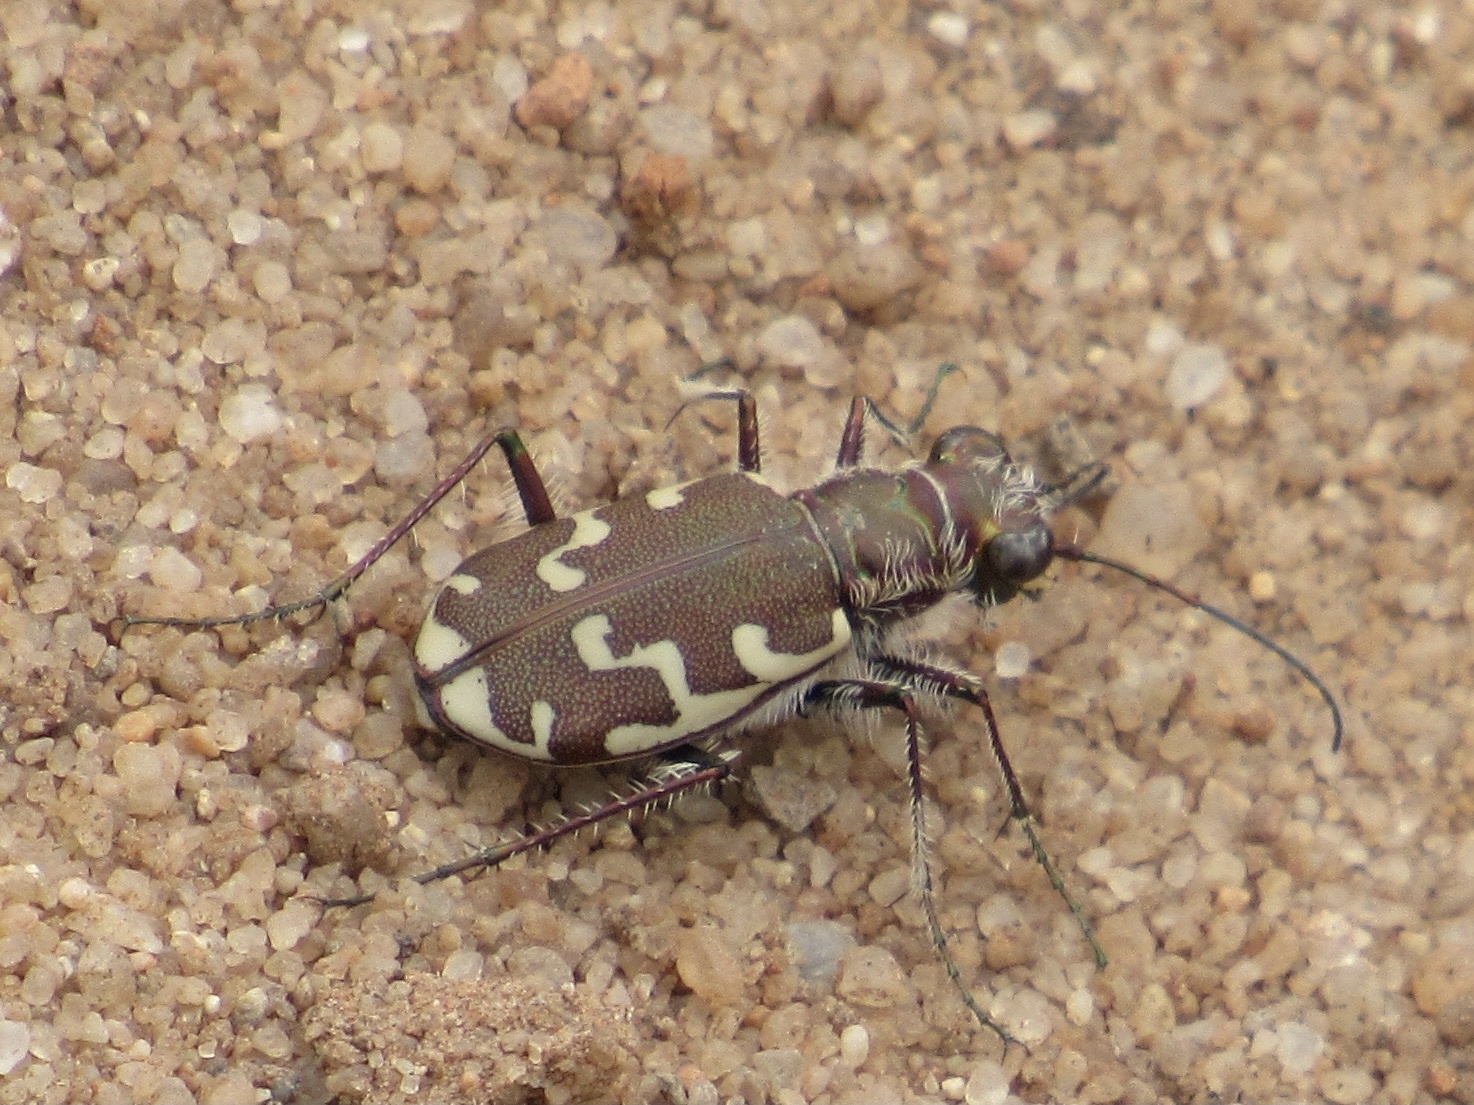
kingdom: Animalia
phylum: Arthropoda
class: Insecta
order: Coleoptera
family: Carabidae
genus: Cicindela
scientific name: Cicindela repanda
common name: Bronzed tiger beetle
